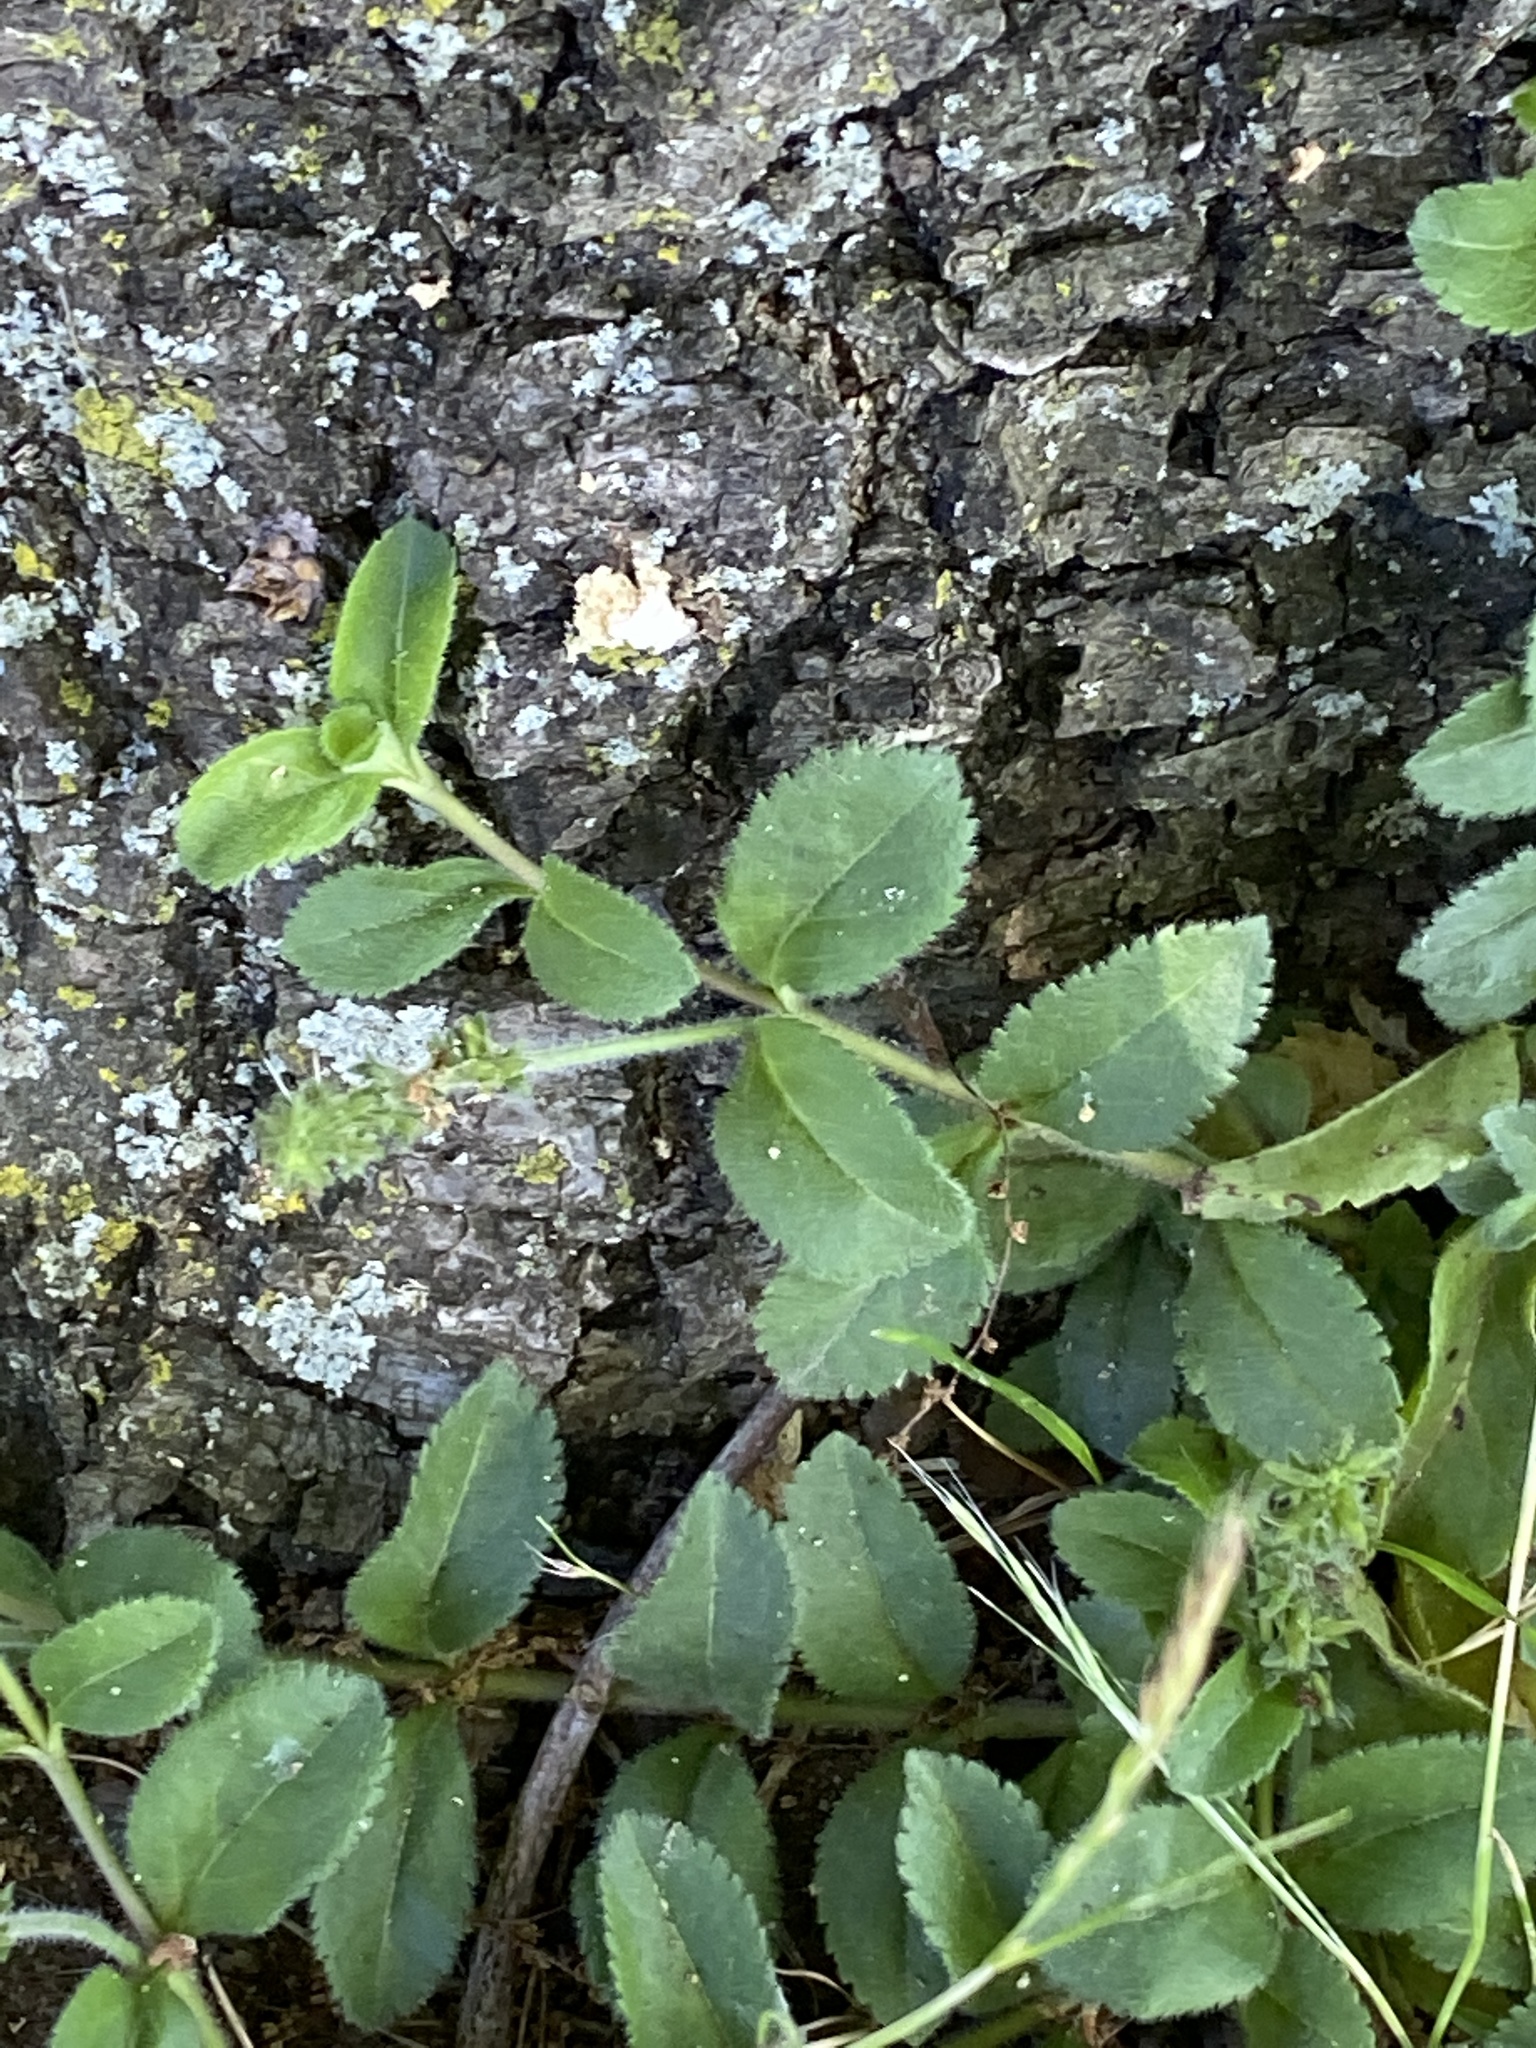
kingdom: Plantae
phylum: Tracheophyta
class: Magnoliopsida
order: Lamiales
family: Plantaginaceae
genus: Veronica
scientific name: Veronica officinalis
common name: Common speedwell
